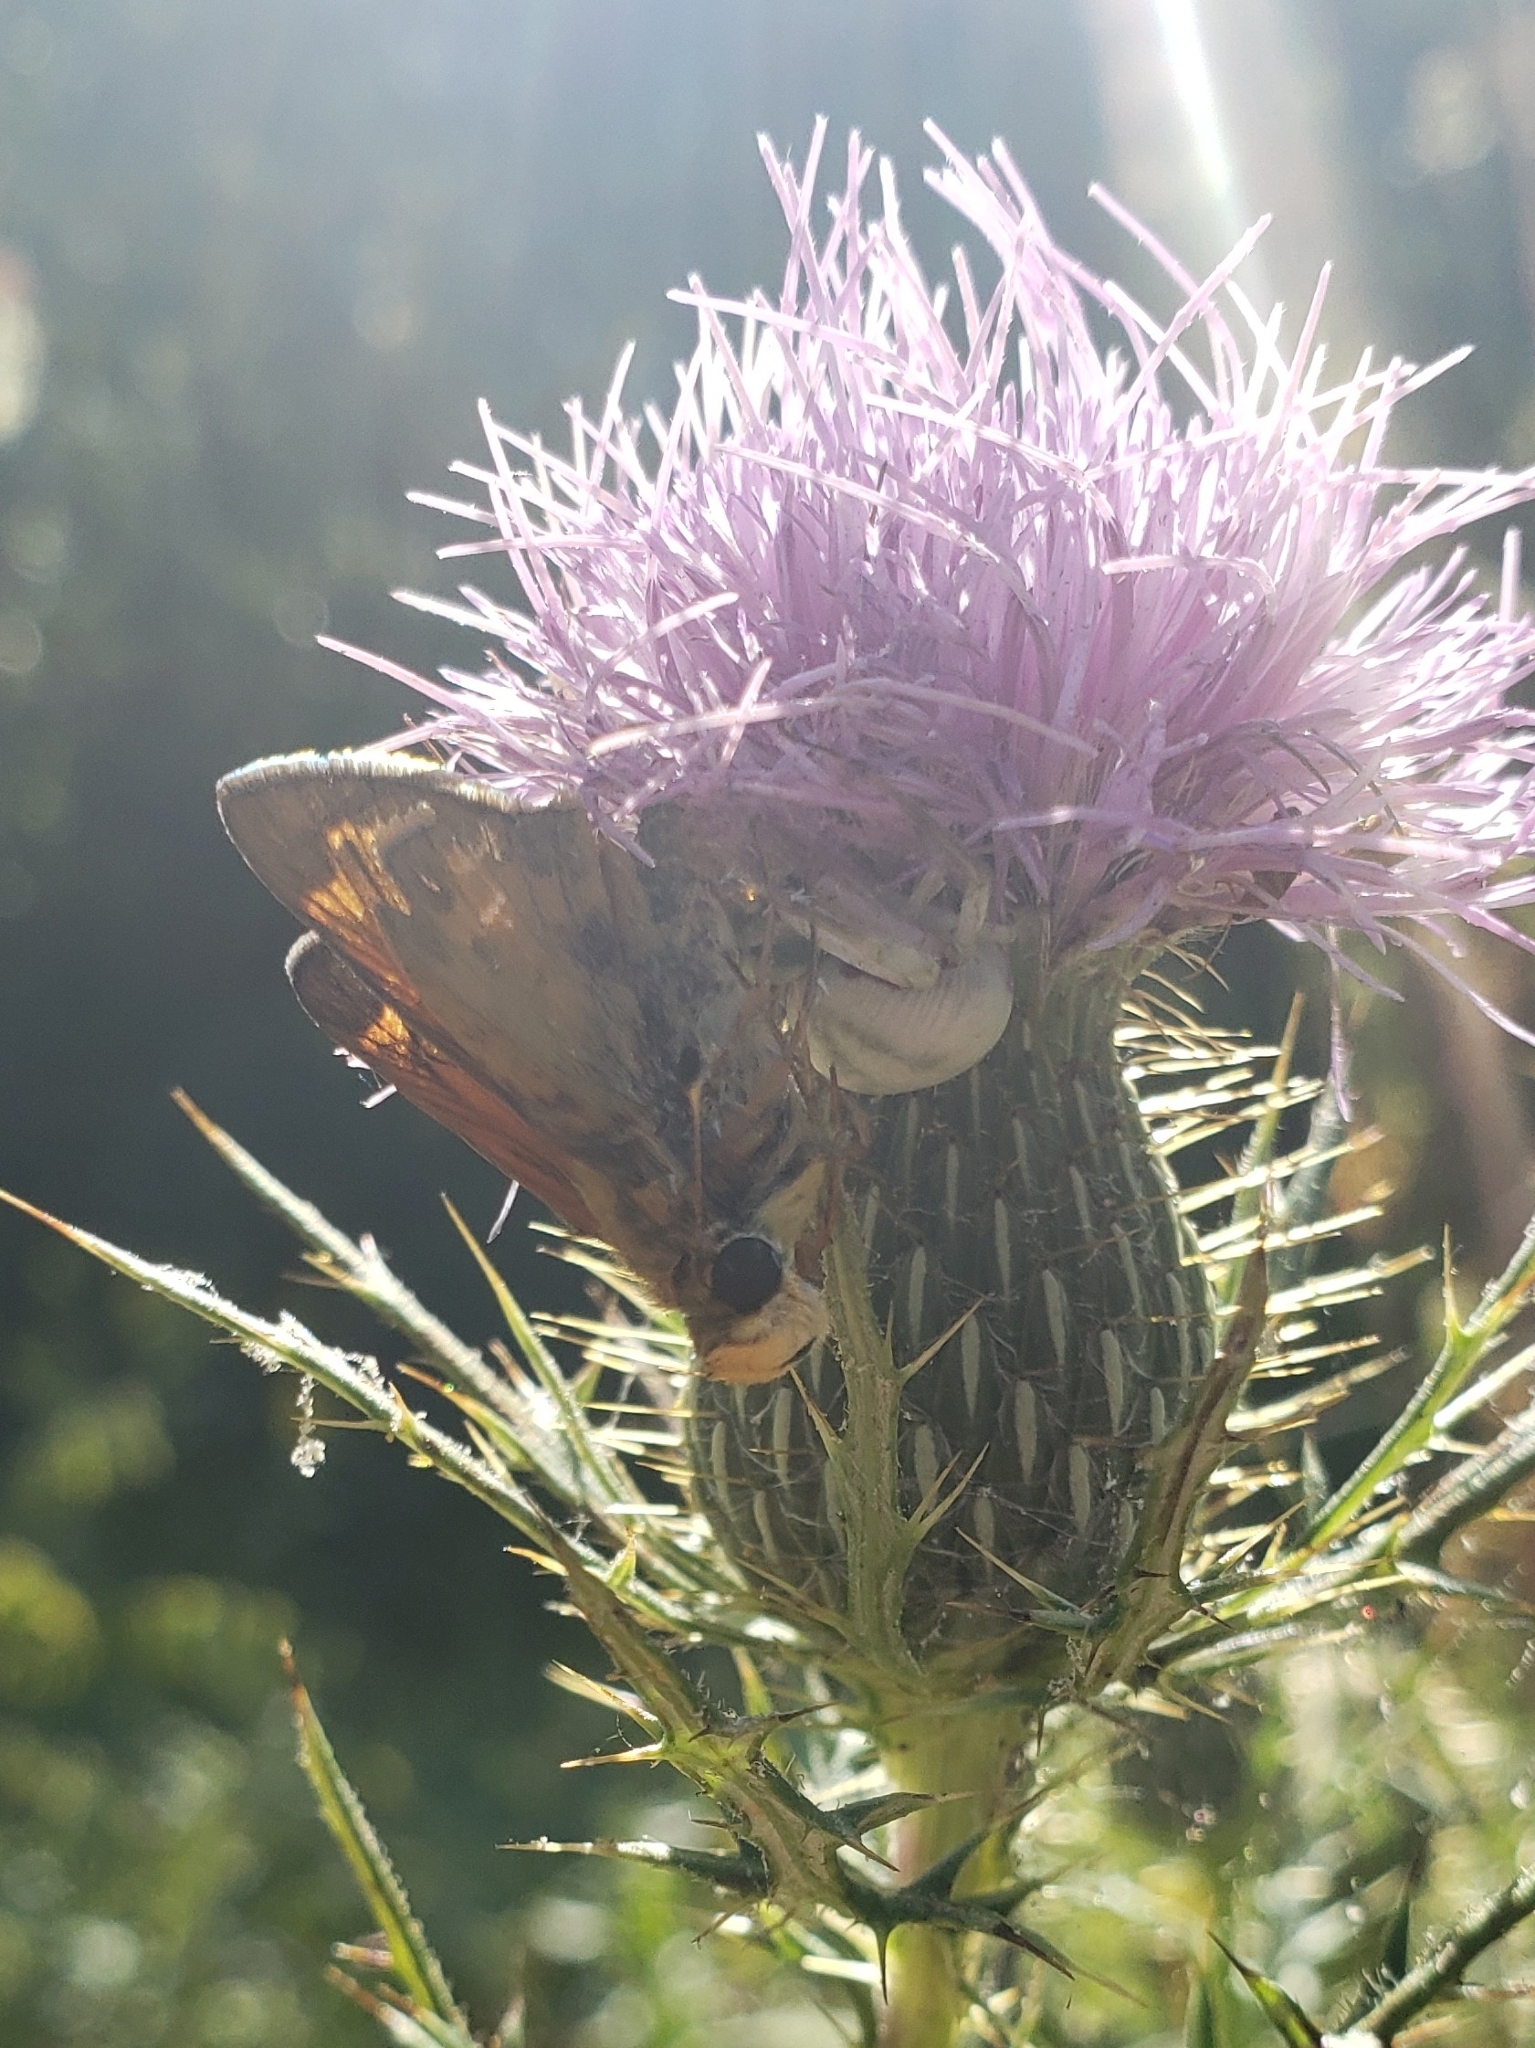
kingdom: Animalia
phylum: Arthropoda
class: Arachnida
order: Araneae
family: Thomisidae
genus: Misumenoides
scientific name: Misumenoides formosipes
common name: White-banded crab spider
